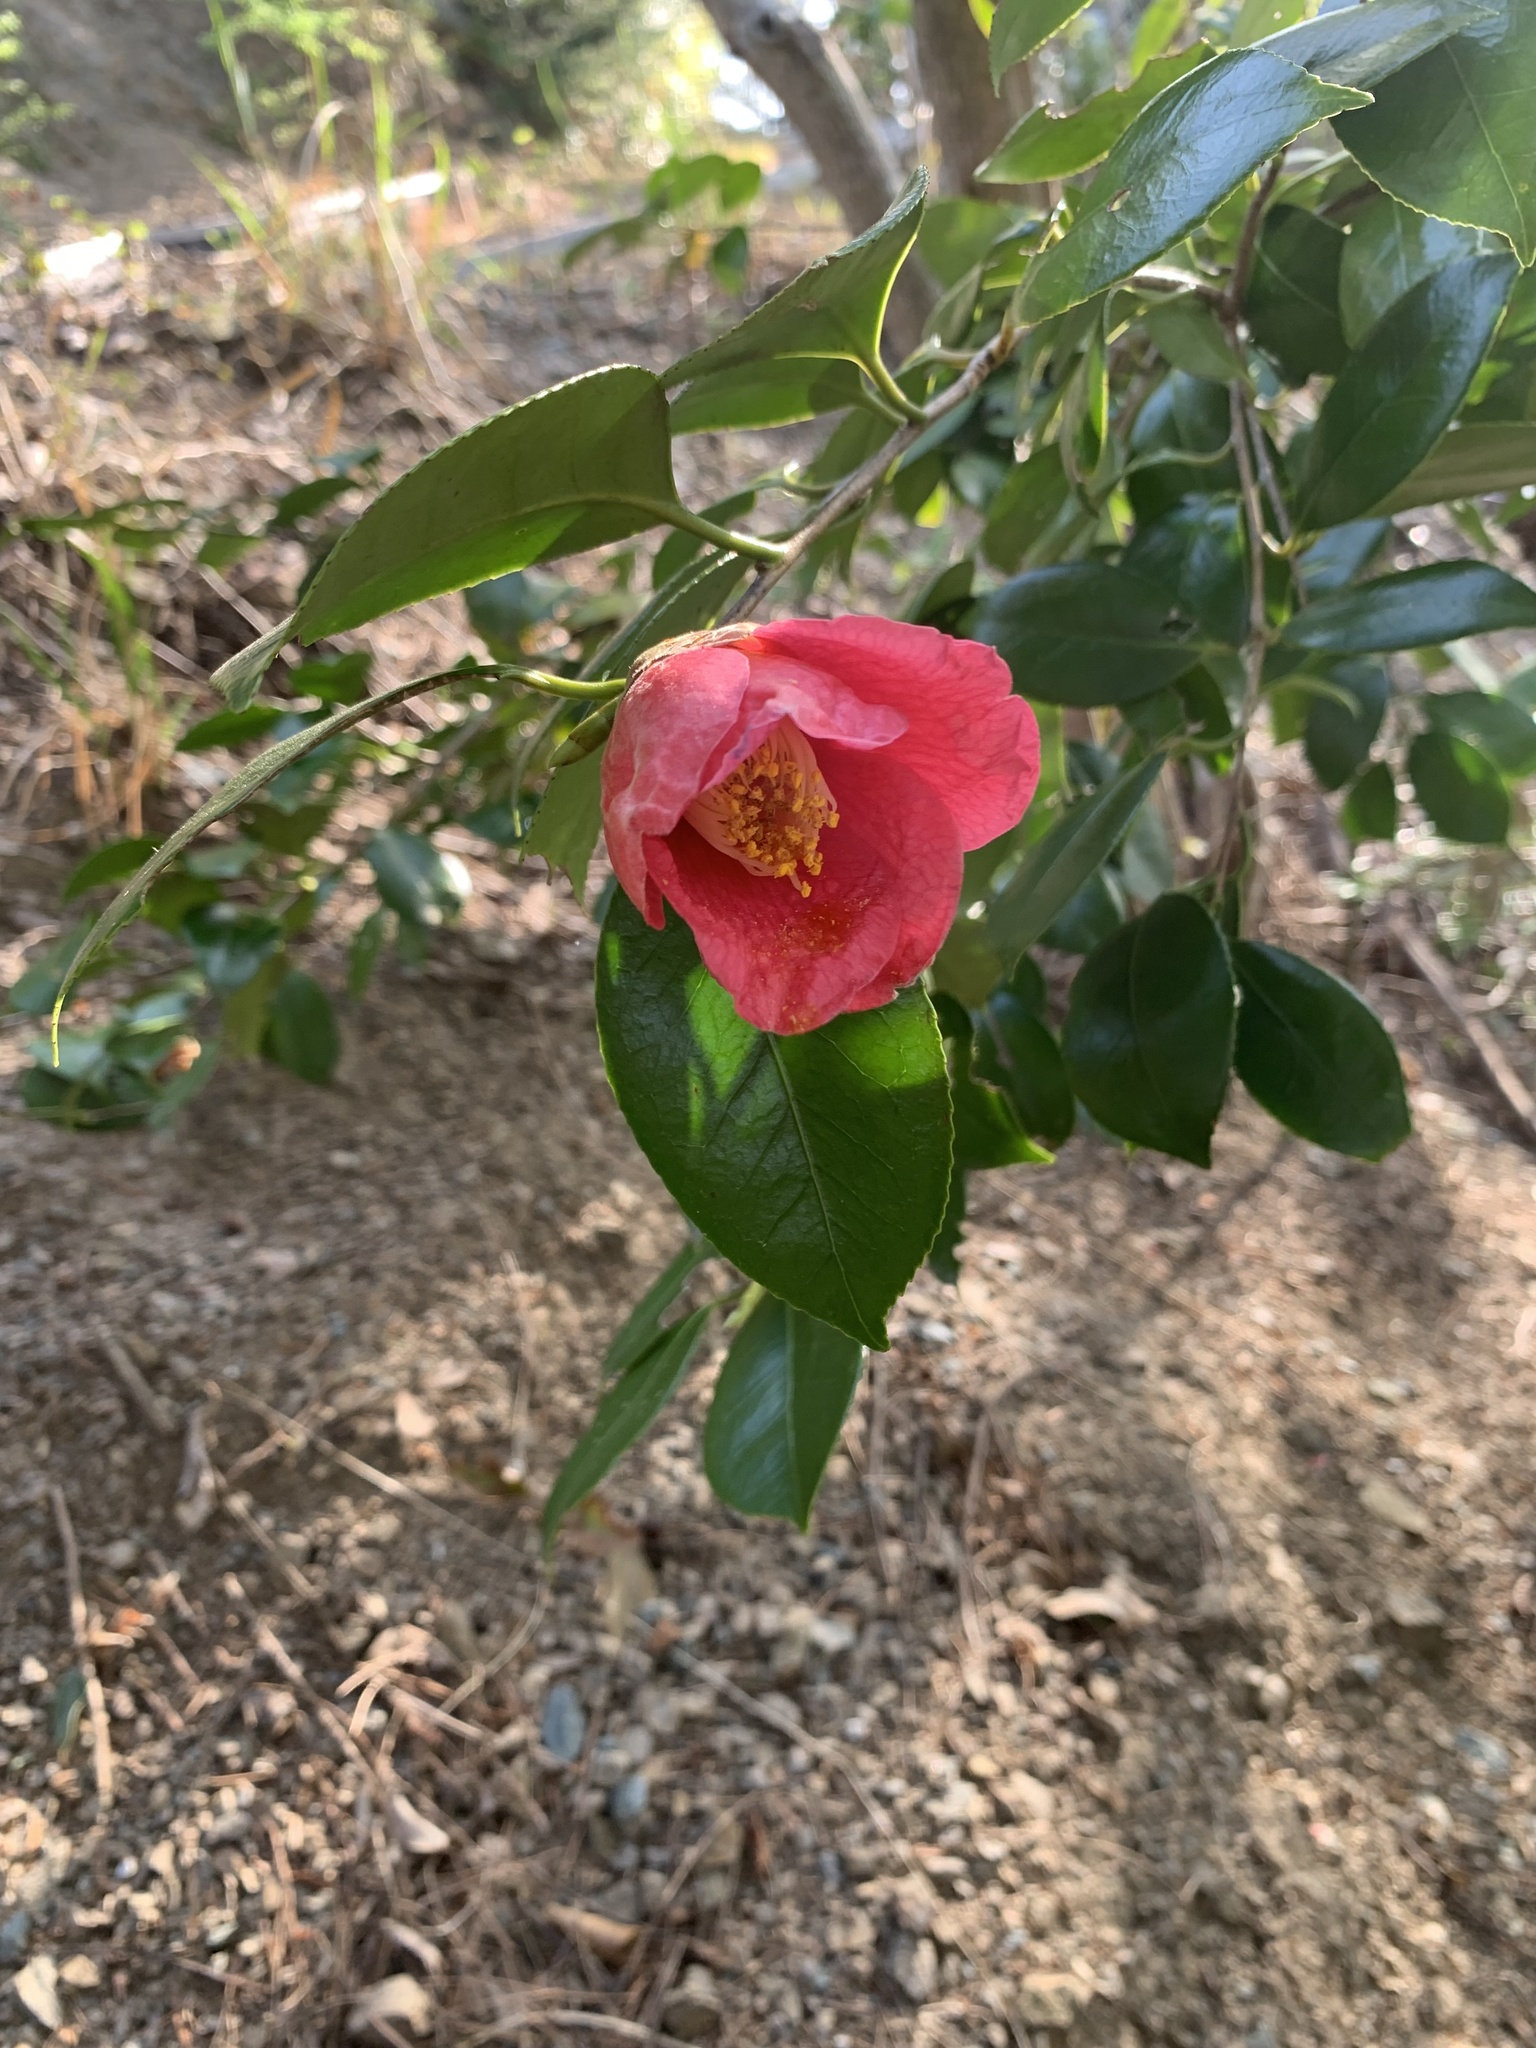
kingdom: Plantae
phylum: Tracheophyta
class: Magnoliopsida
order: Ericales
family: Theaceae
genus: Camellia
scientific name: Camellia japonica
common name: Camellia
